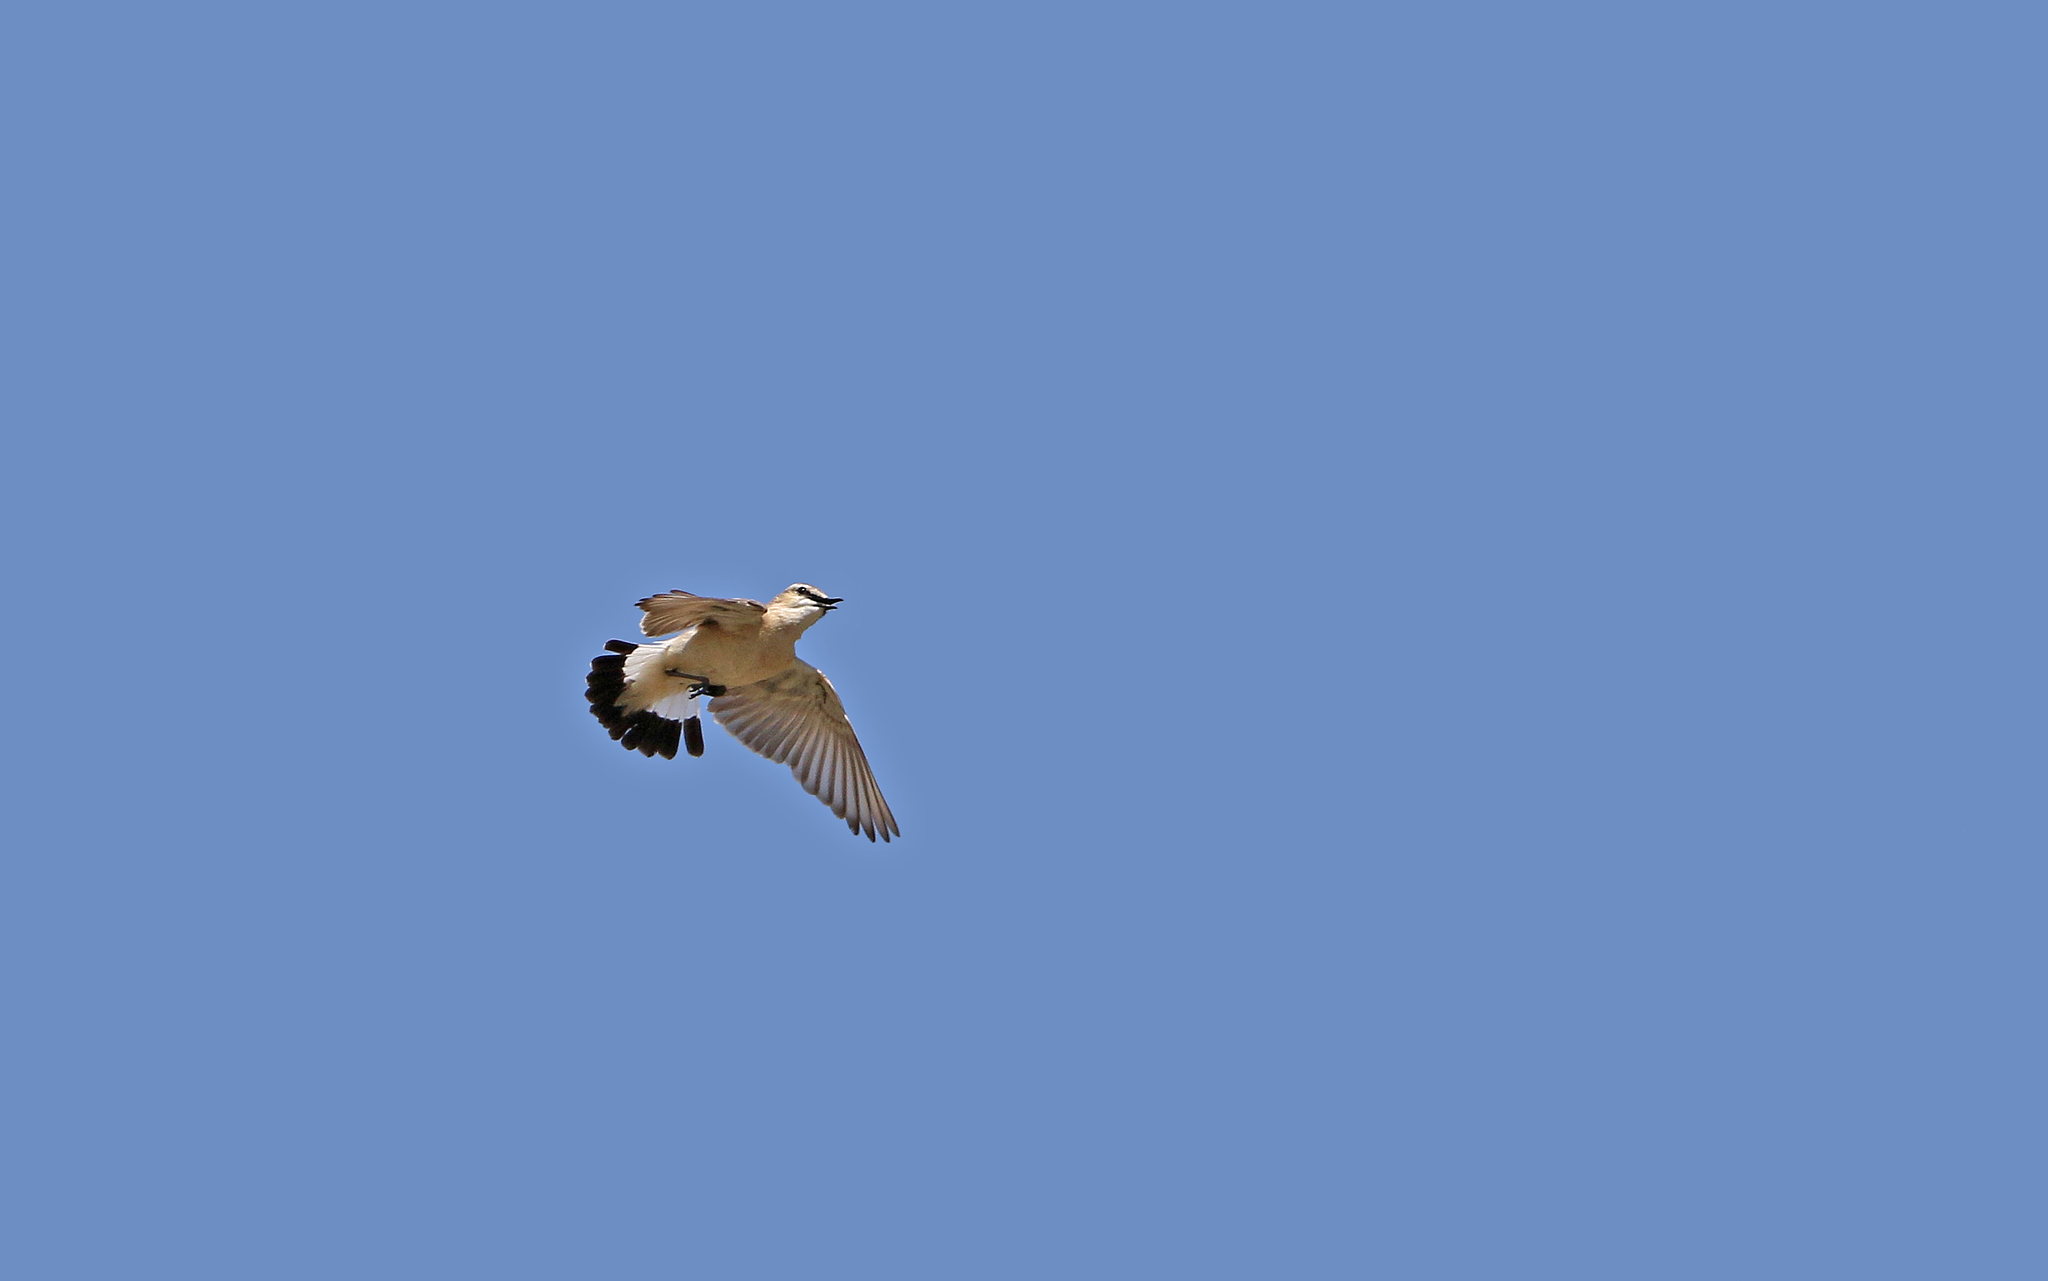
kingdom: Animalia
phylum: Chordata
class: Aves
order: Passeriformes
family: Muscicapidae
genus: Oenanthe
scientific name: Oenanthe isabellina
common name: Isabelline wheatear
